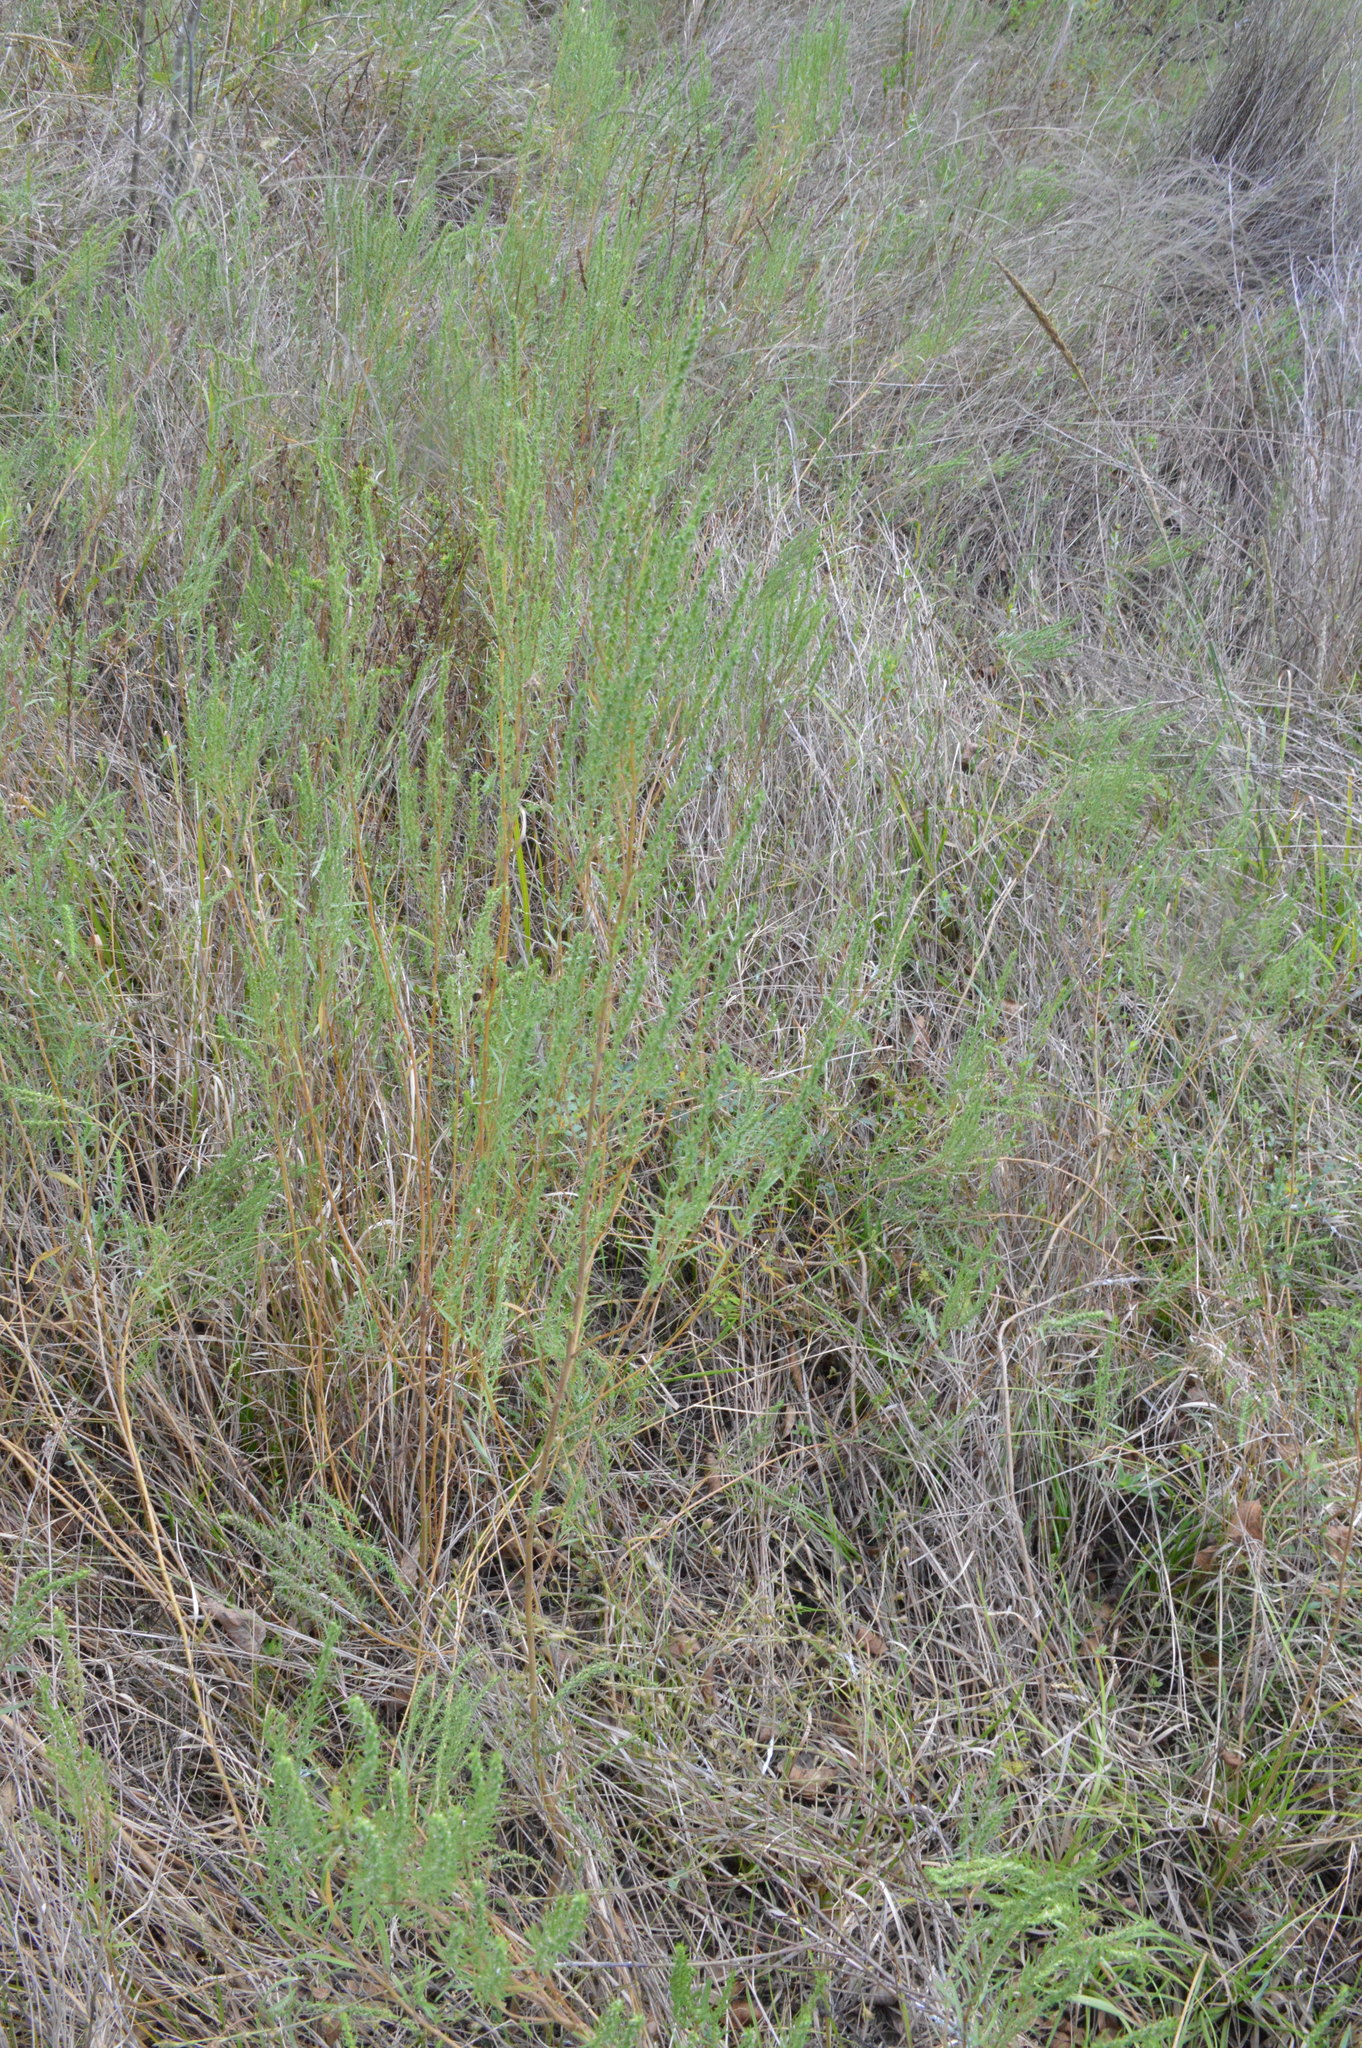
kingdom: Plantae
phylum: Tracheophyta
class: Magnoliopsida
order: Asterales
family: Asteraceae
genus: Iva
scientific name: Iva asperifolia
